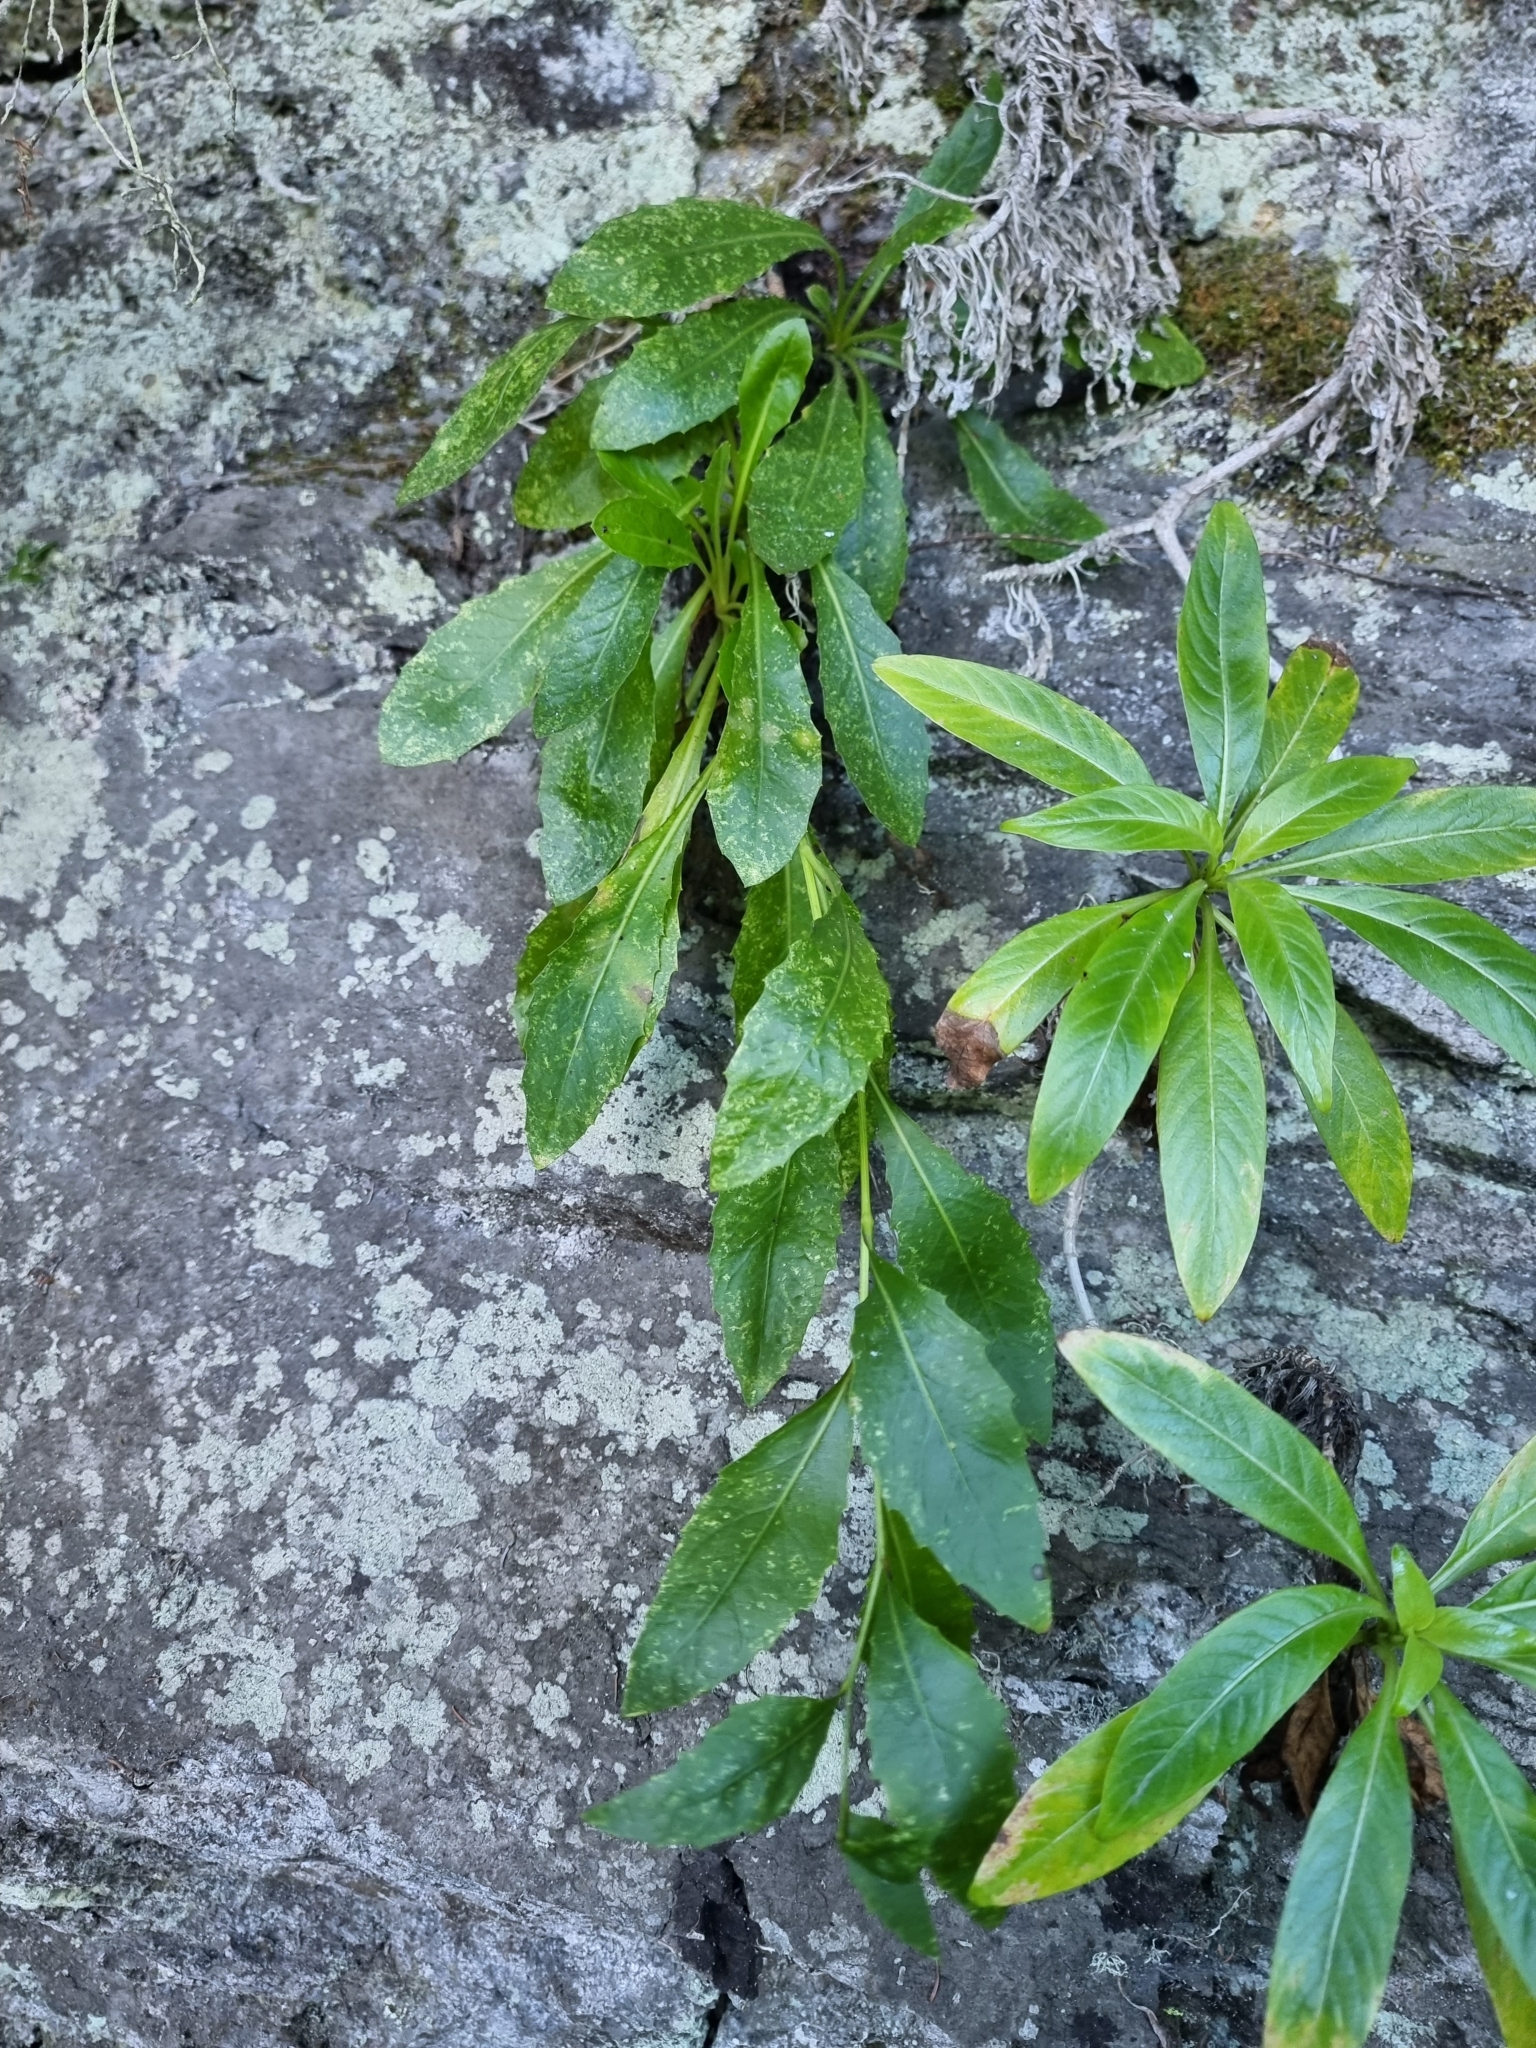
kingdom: Plantae
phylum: Tracheophyta
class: Magnoliopsida
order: Asterales
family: Asteraceae
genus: Tolpis
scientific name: Tolpis macrorhiza
